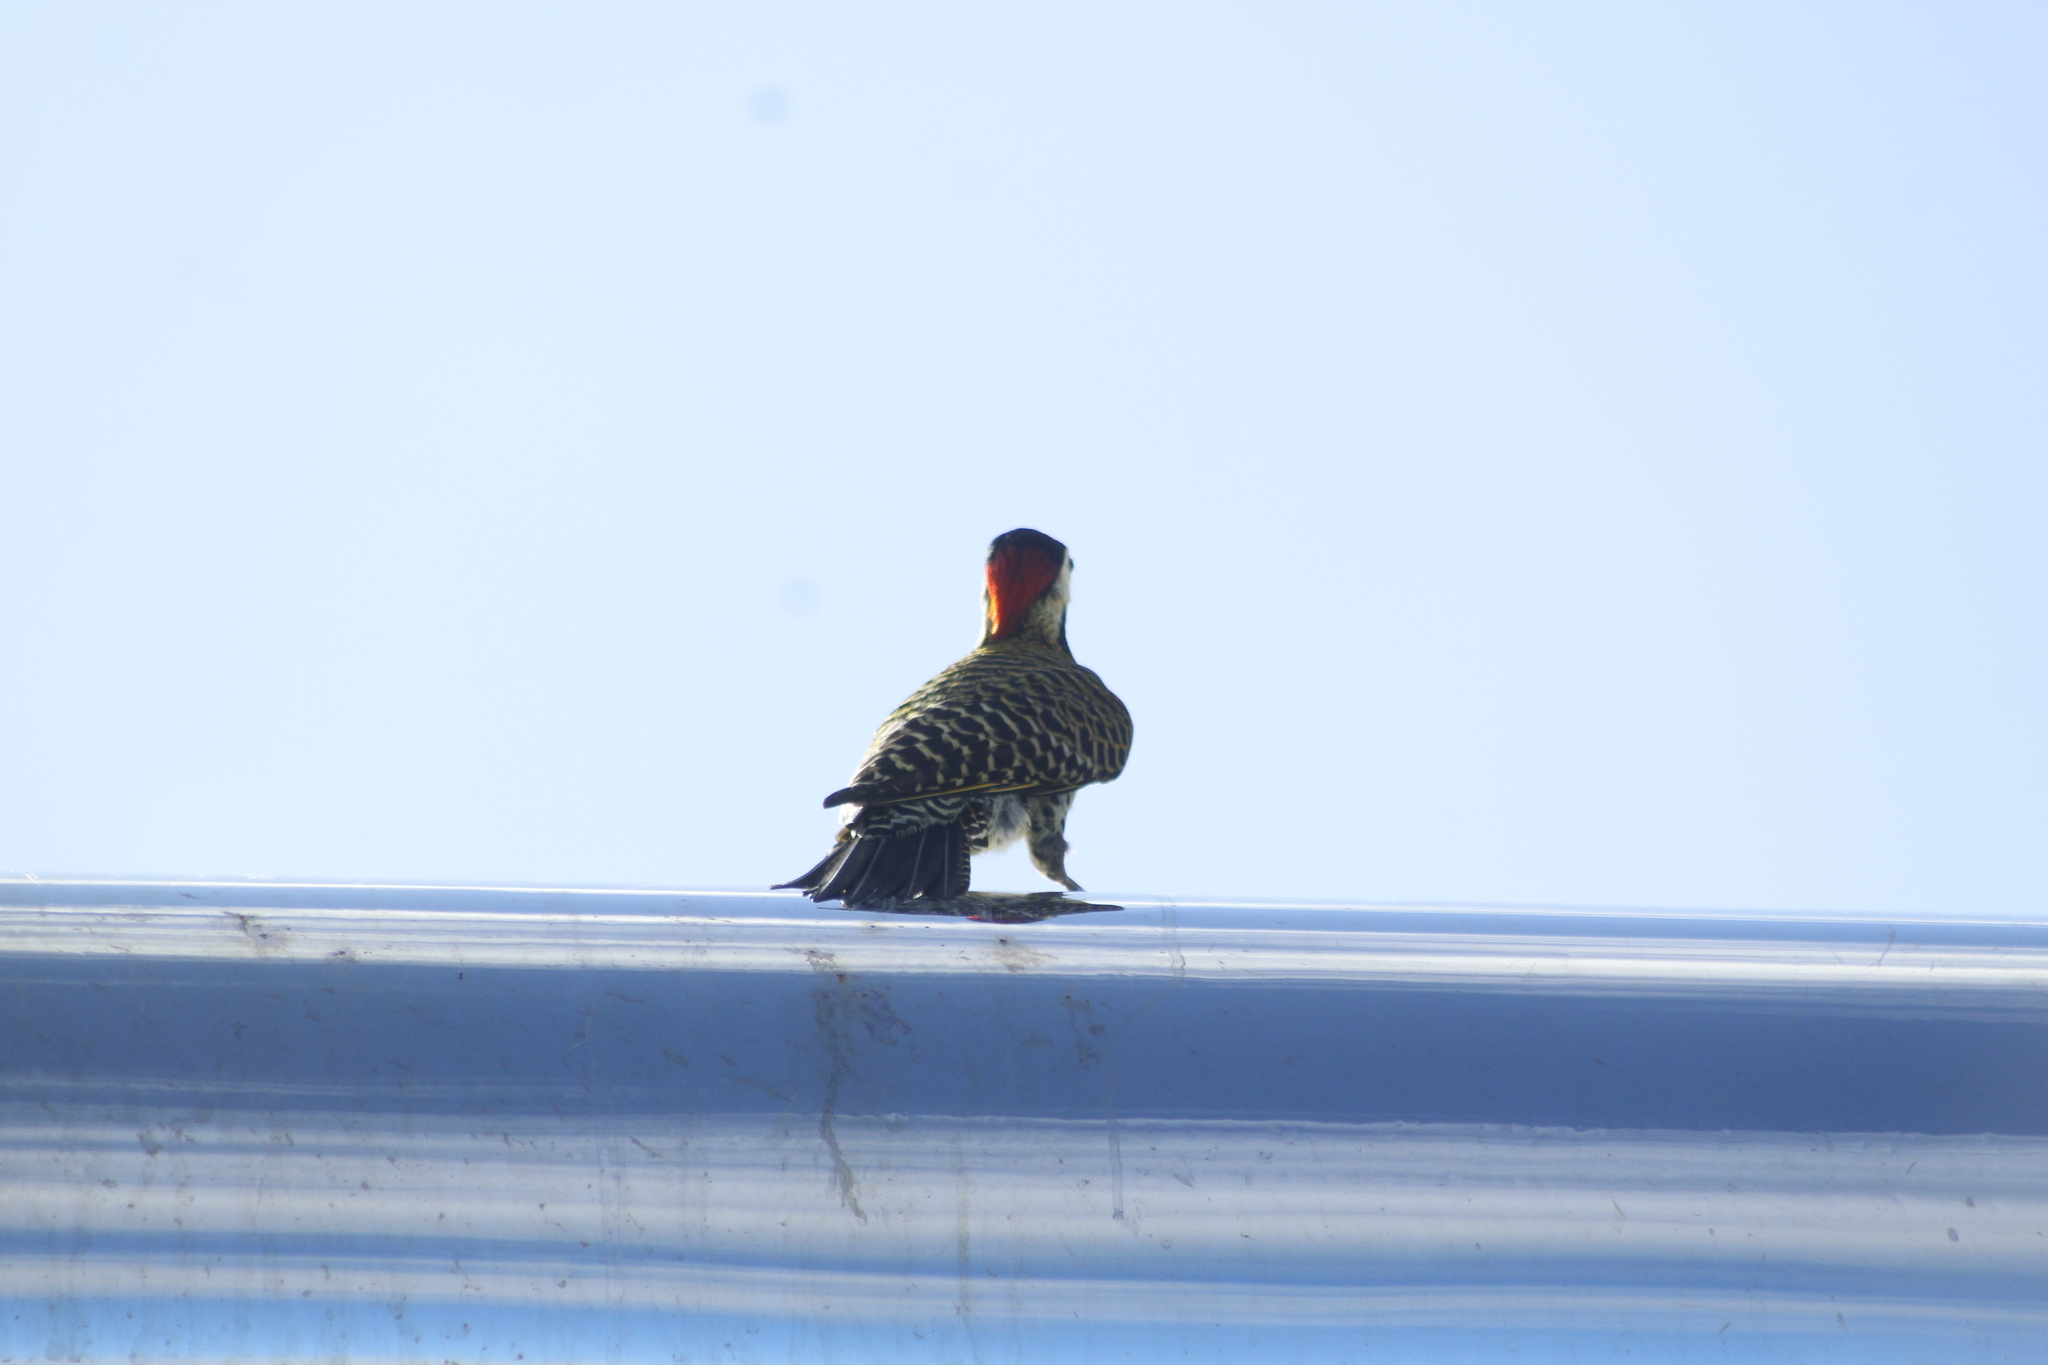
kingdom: Animalia
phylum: Chordata
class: Aves
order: Piciformes
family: Picidae
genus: Colaptes
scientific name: Colaptes melanochloros
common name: Green-barred woodpecker
